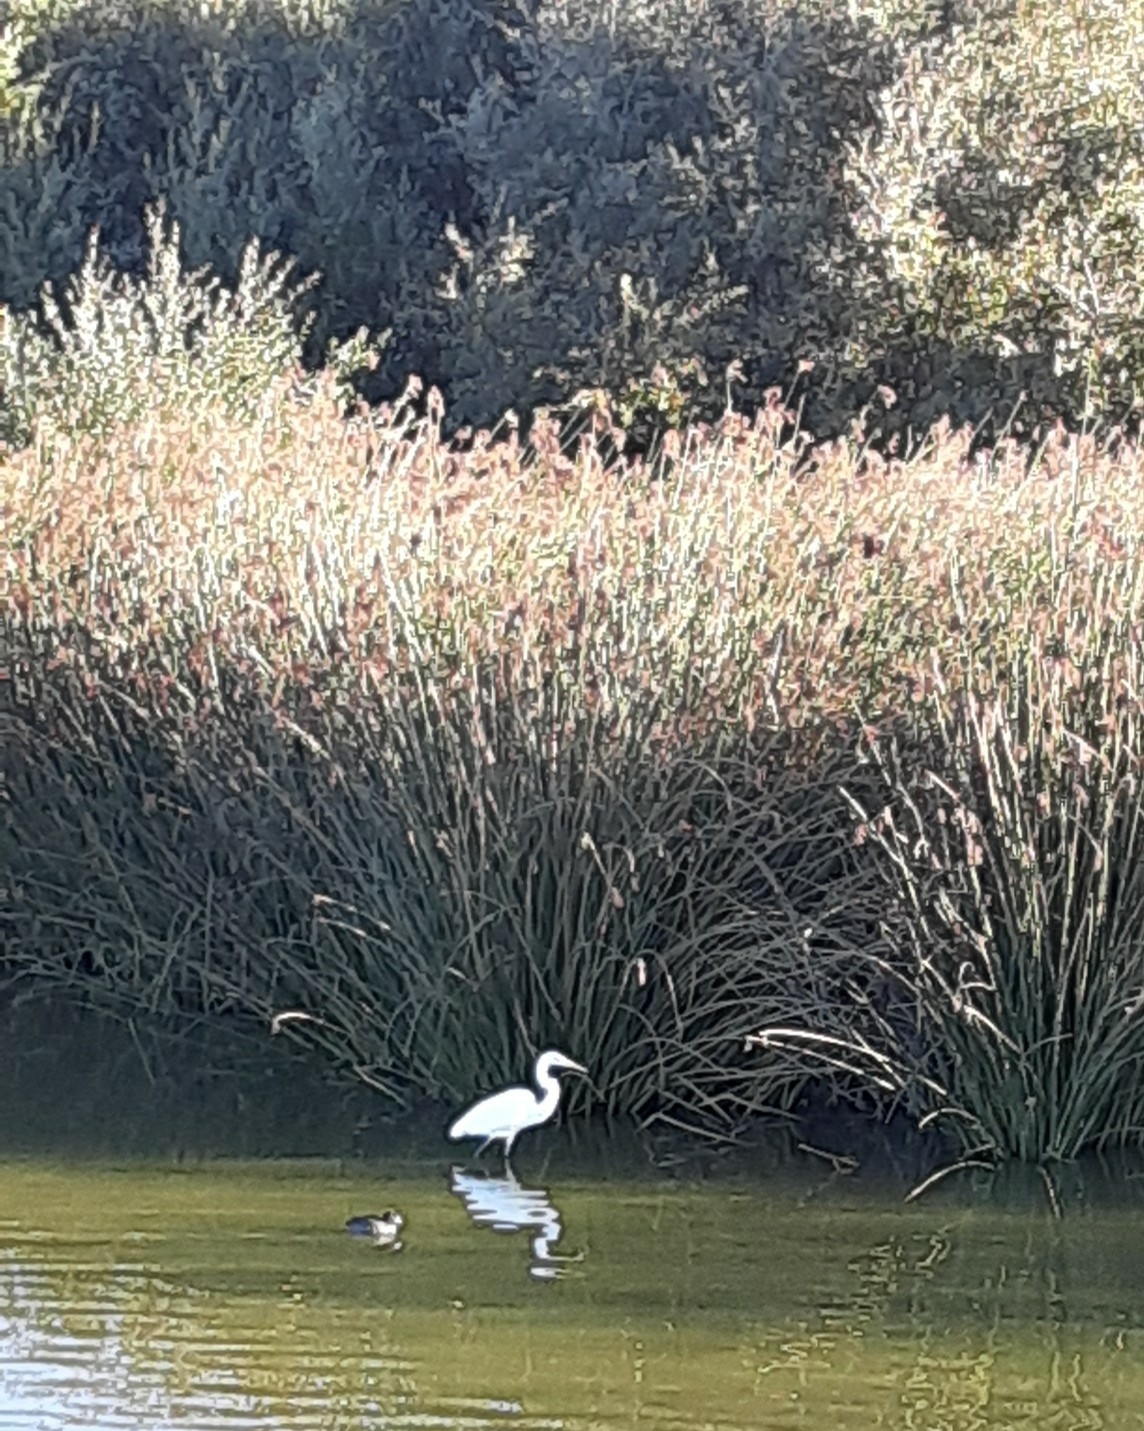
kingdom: Animalia
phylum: Chordata
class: Aves
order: Pelecaniformes
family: Ardeidae
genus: Ardea
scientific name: Ardea alba
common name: Great egret
